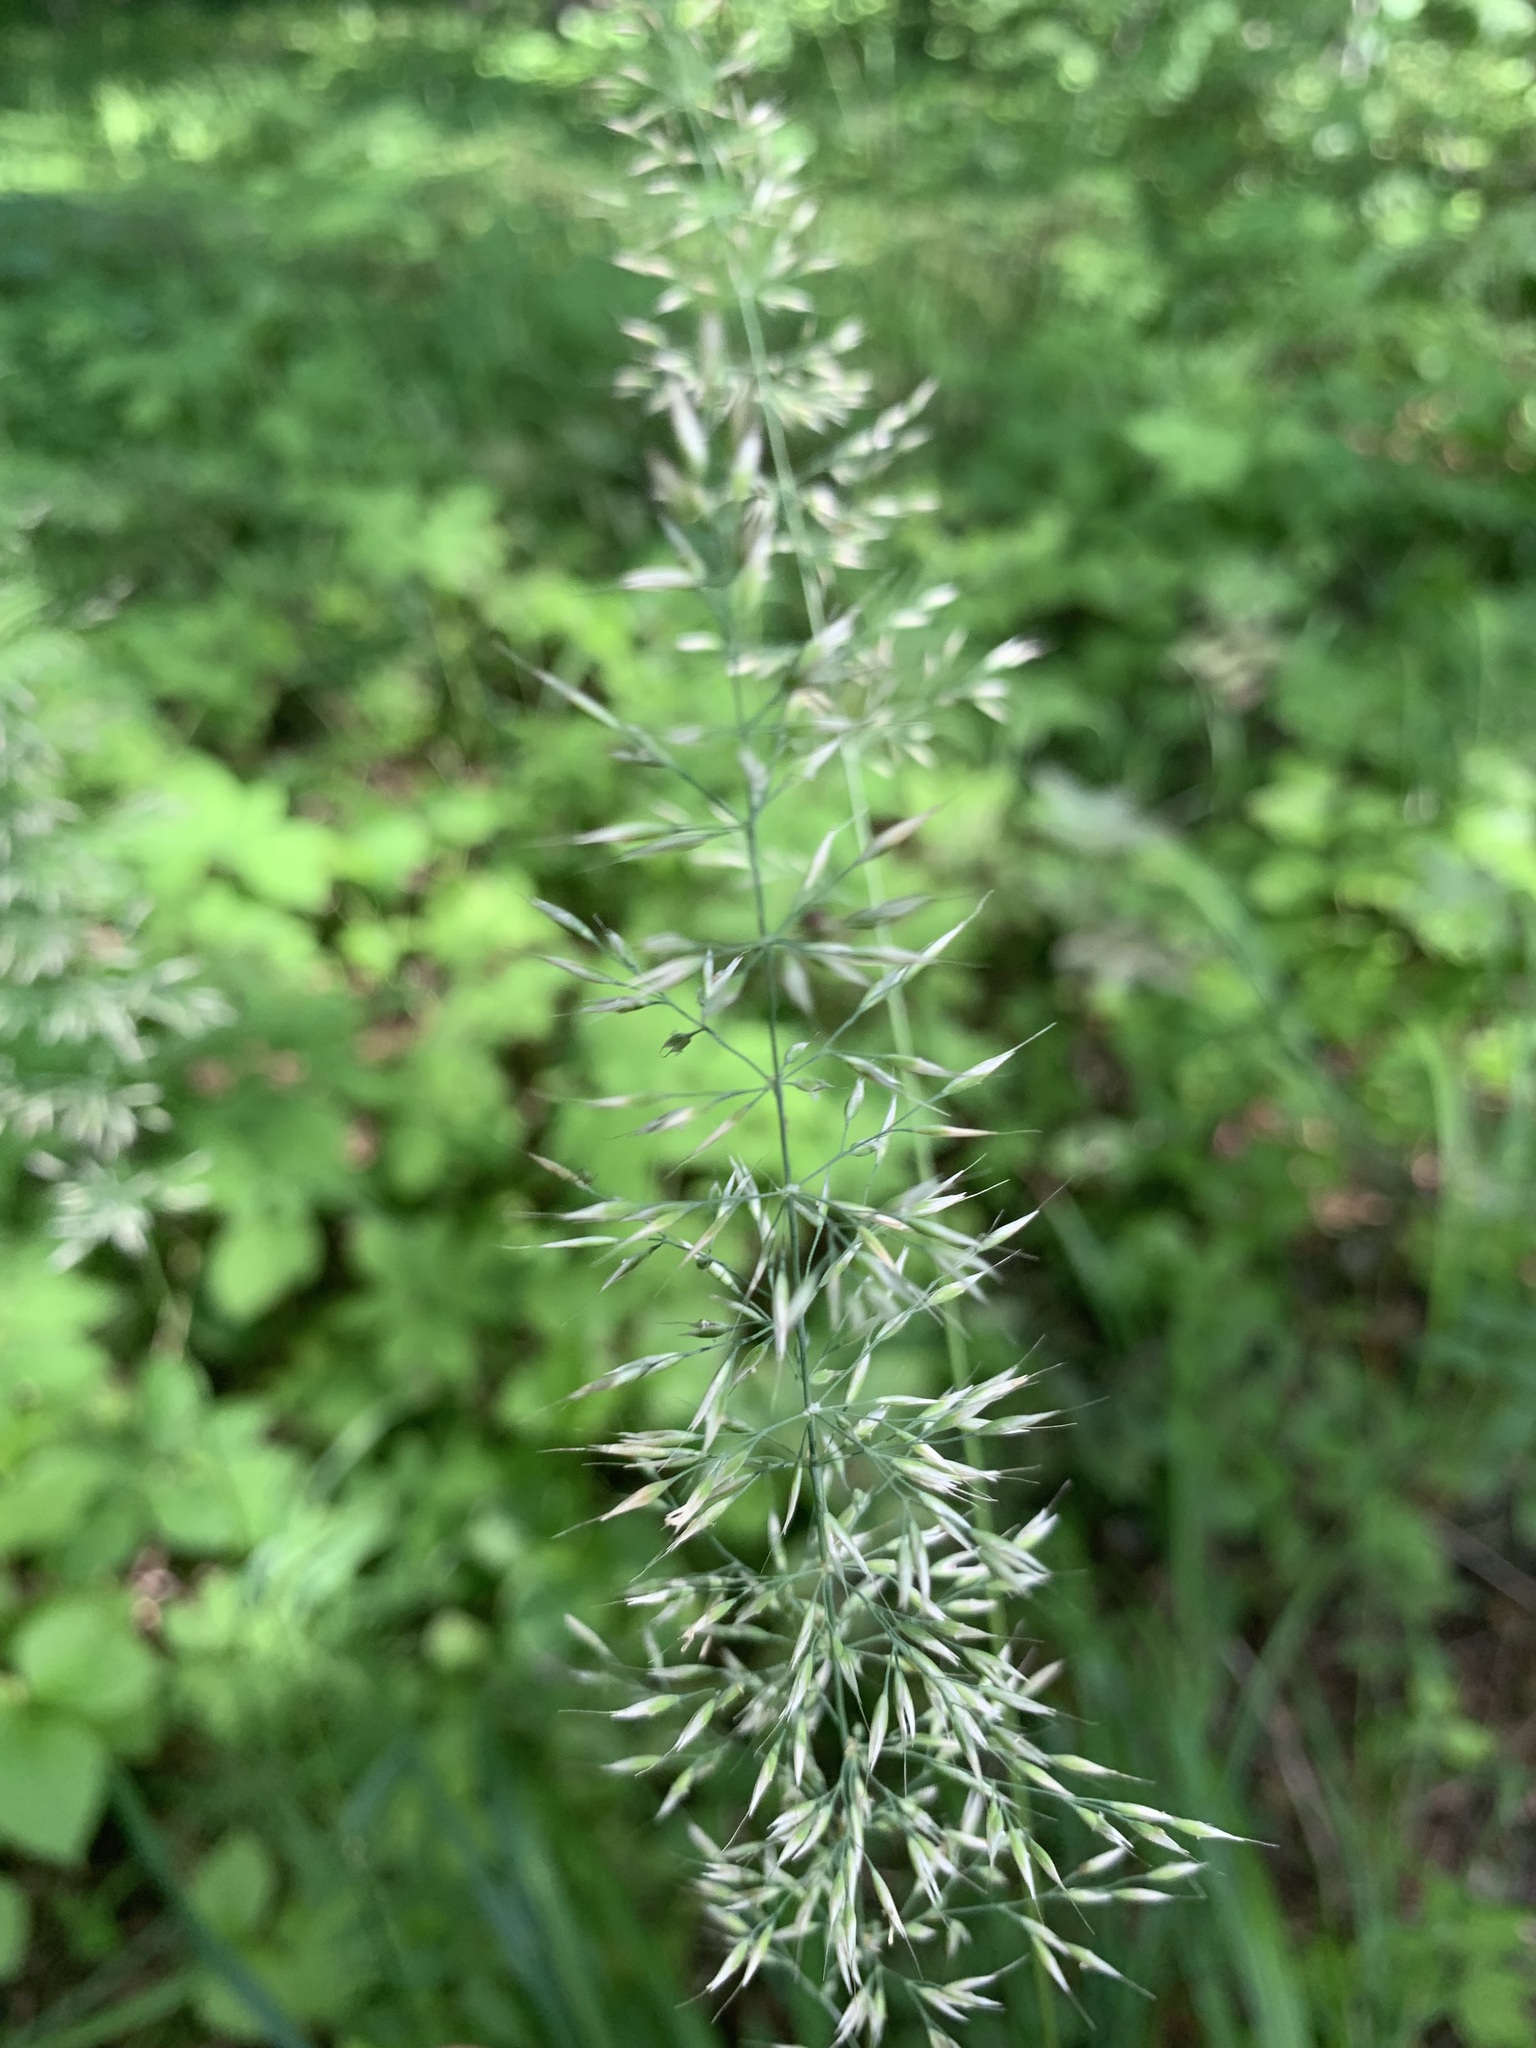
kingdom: Plantae
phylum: Tracheophyta
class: Liliopsida
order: Poales
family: Poaceae
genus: Calamagrostis
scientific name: Calamagrostis arundinacea
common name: Metskastik
